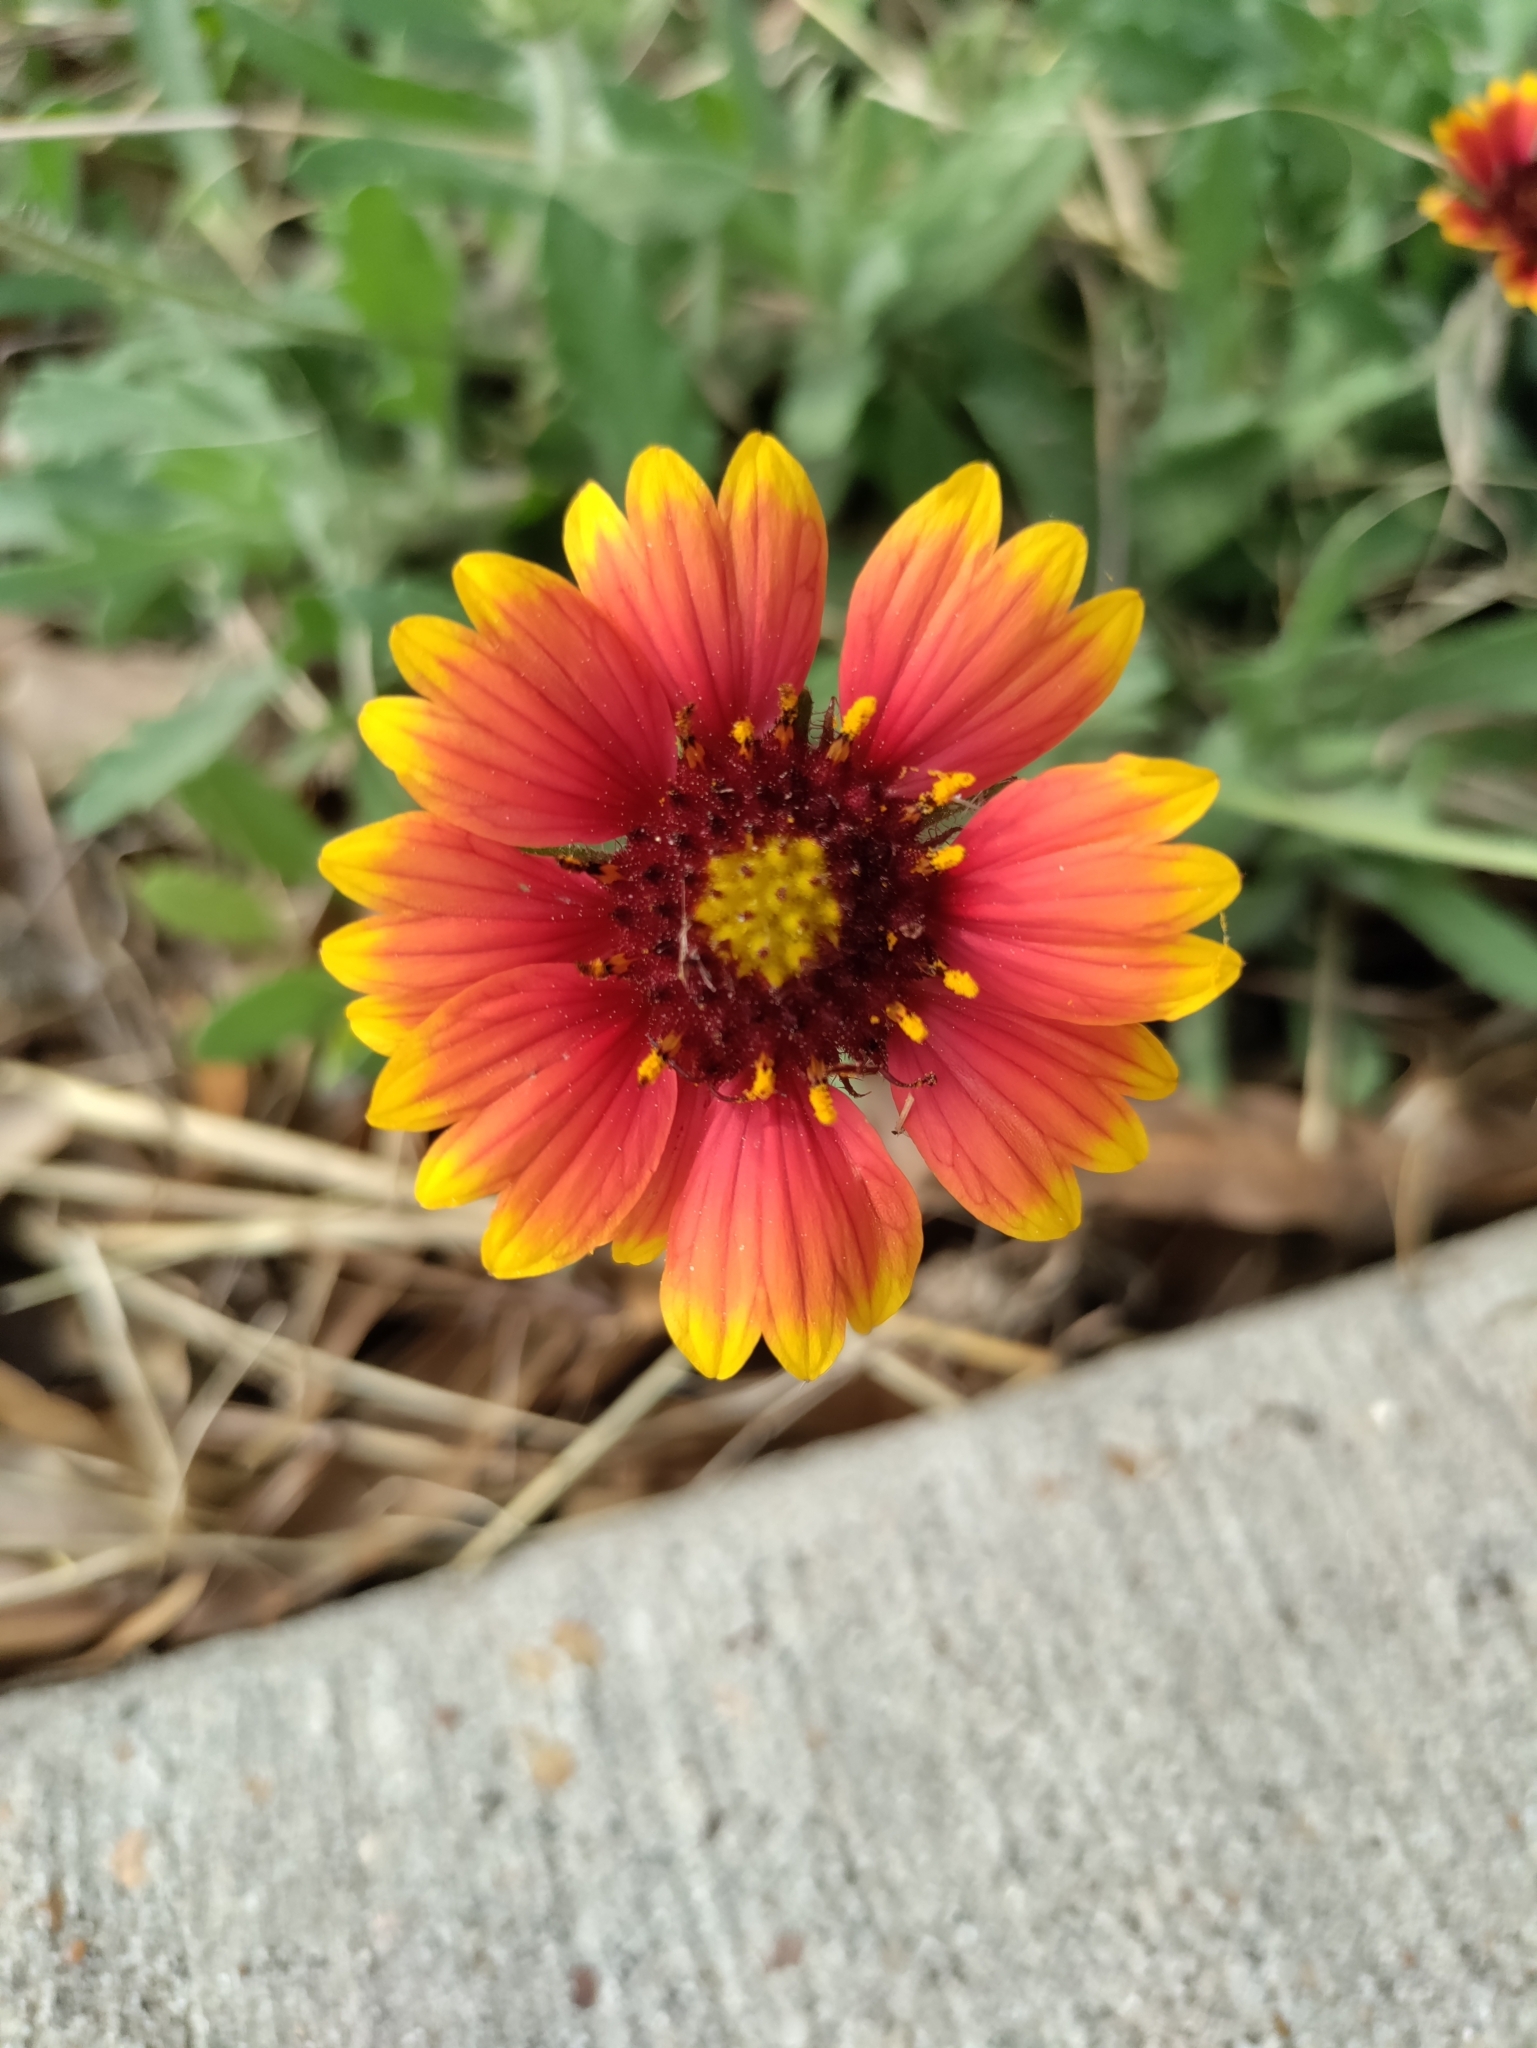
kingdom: Plantae
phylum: Tracheophyta
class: Magnoliopsida
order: Asterales
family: Asteraceae
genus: Gaillardia
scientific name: Gaillardia pulchella
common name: Firewheel
